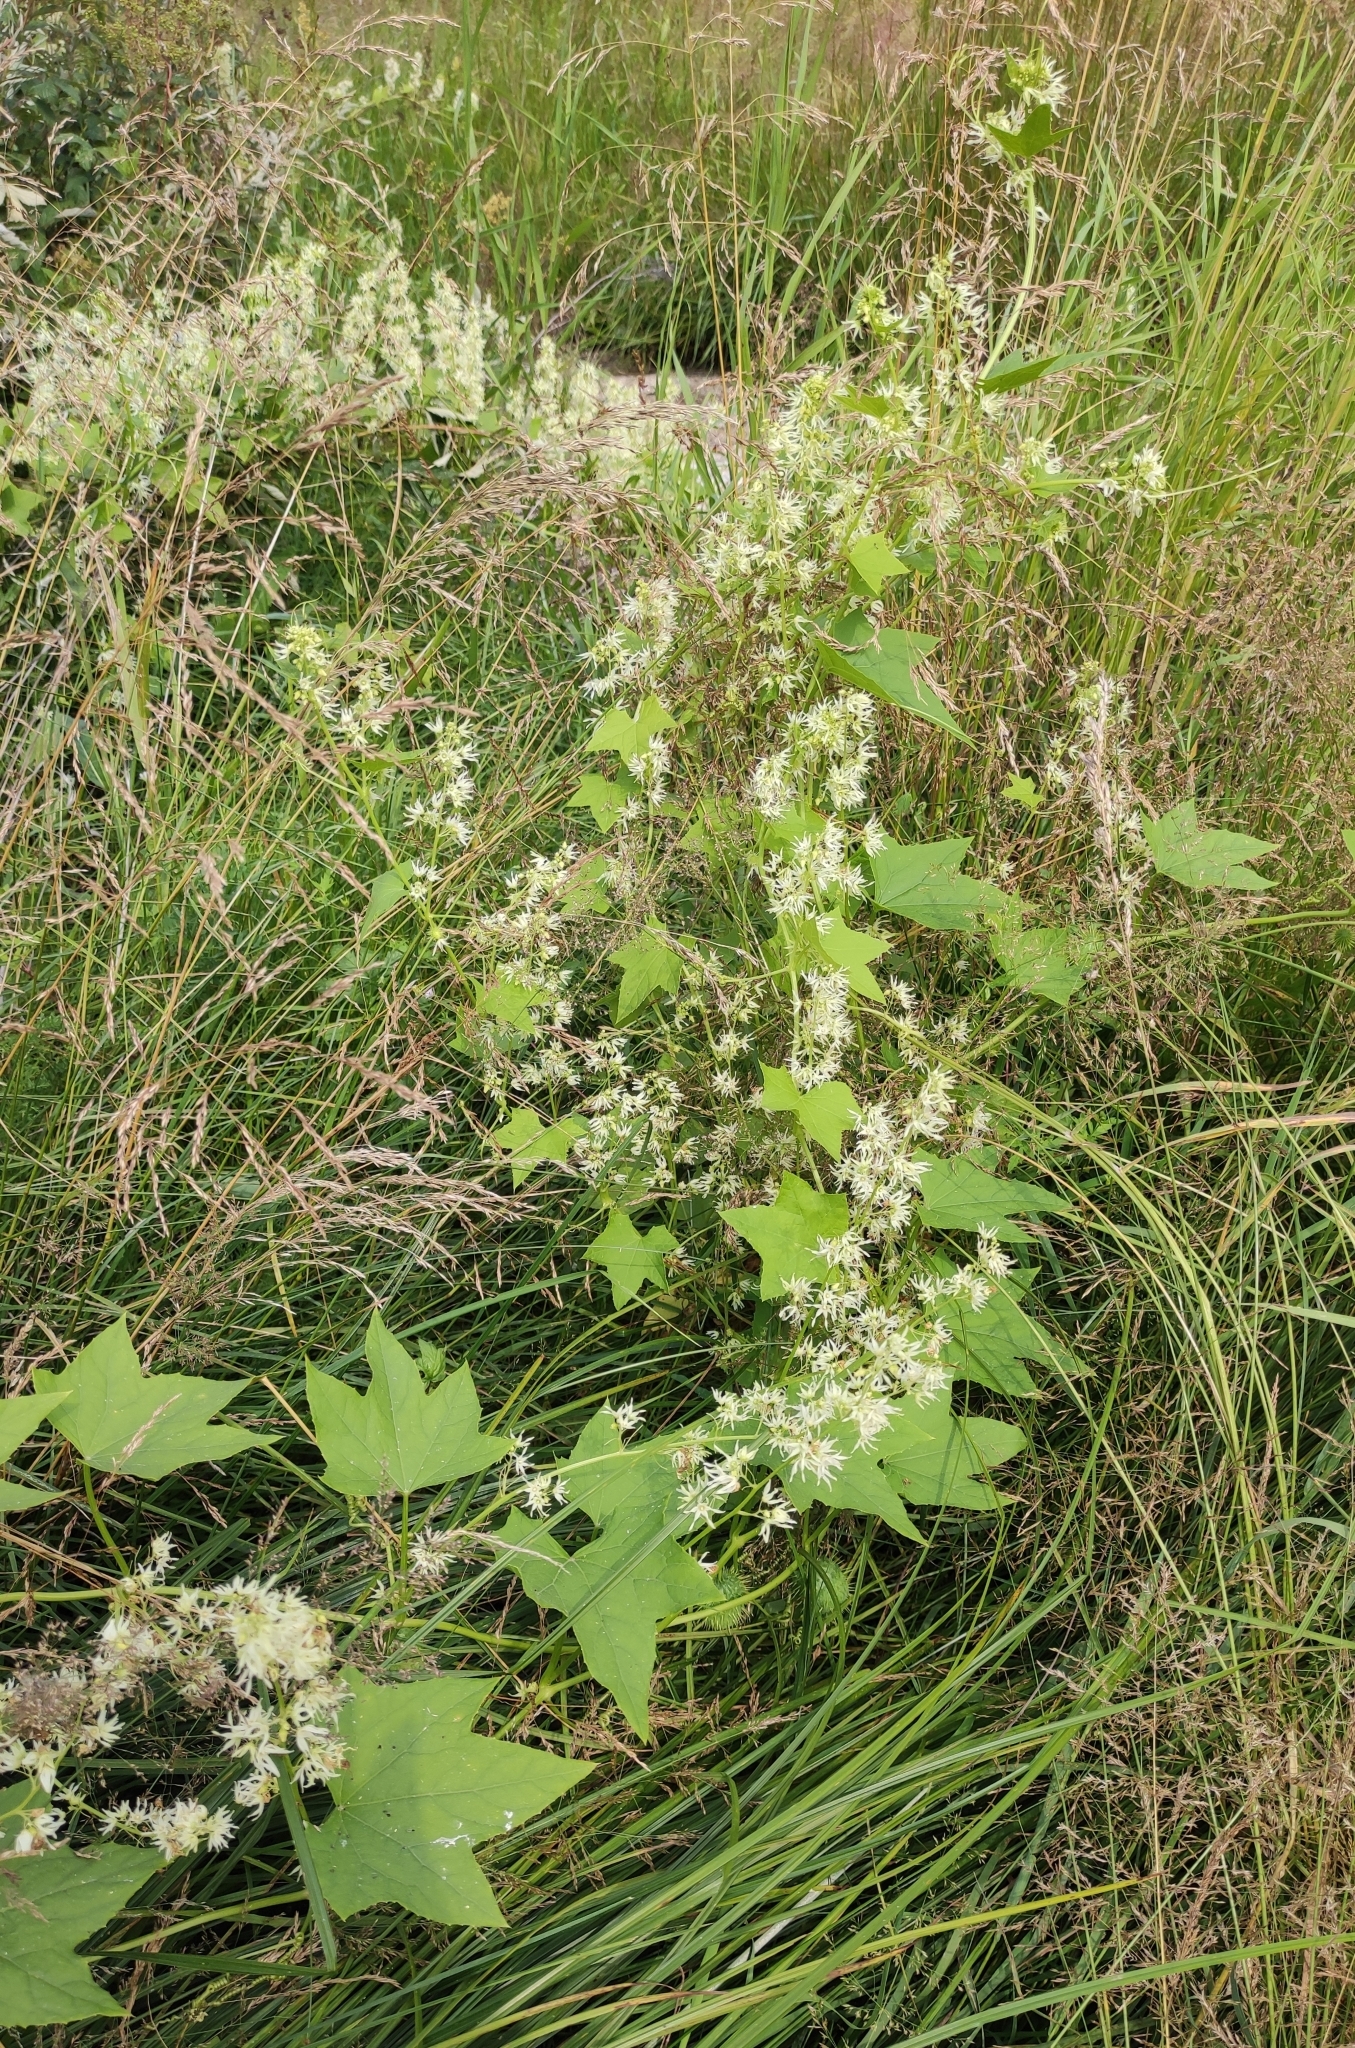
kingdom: Plantae
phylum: Tracheophyta
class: Magnoliopsida
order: Cucurbitales
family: Cucurbitaceae
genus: Echinocystis
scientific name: Echinocystis lobata
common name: Wild cucumber
